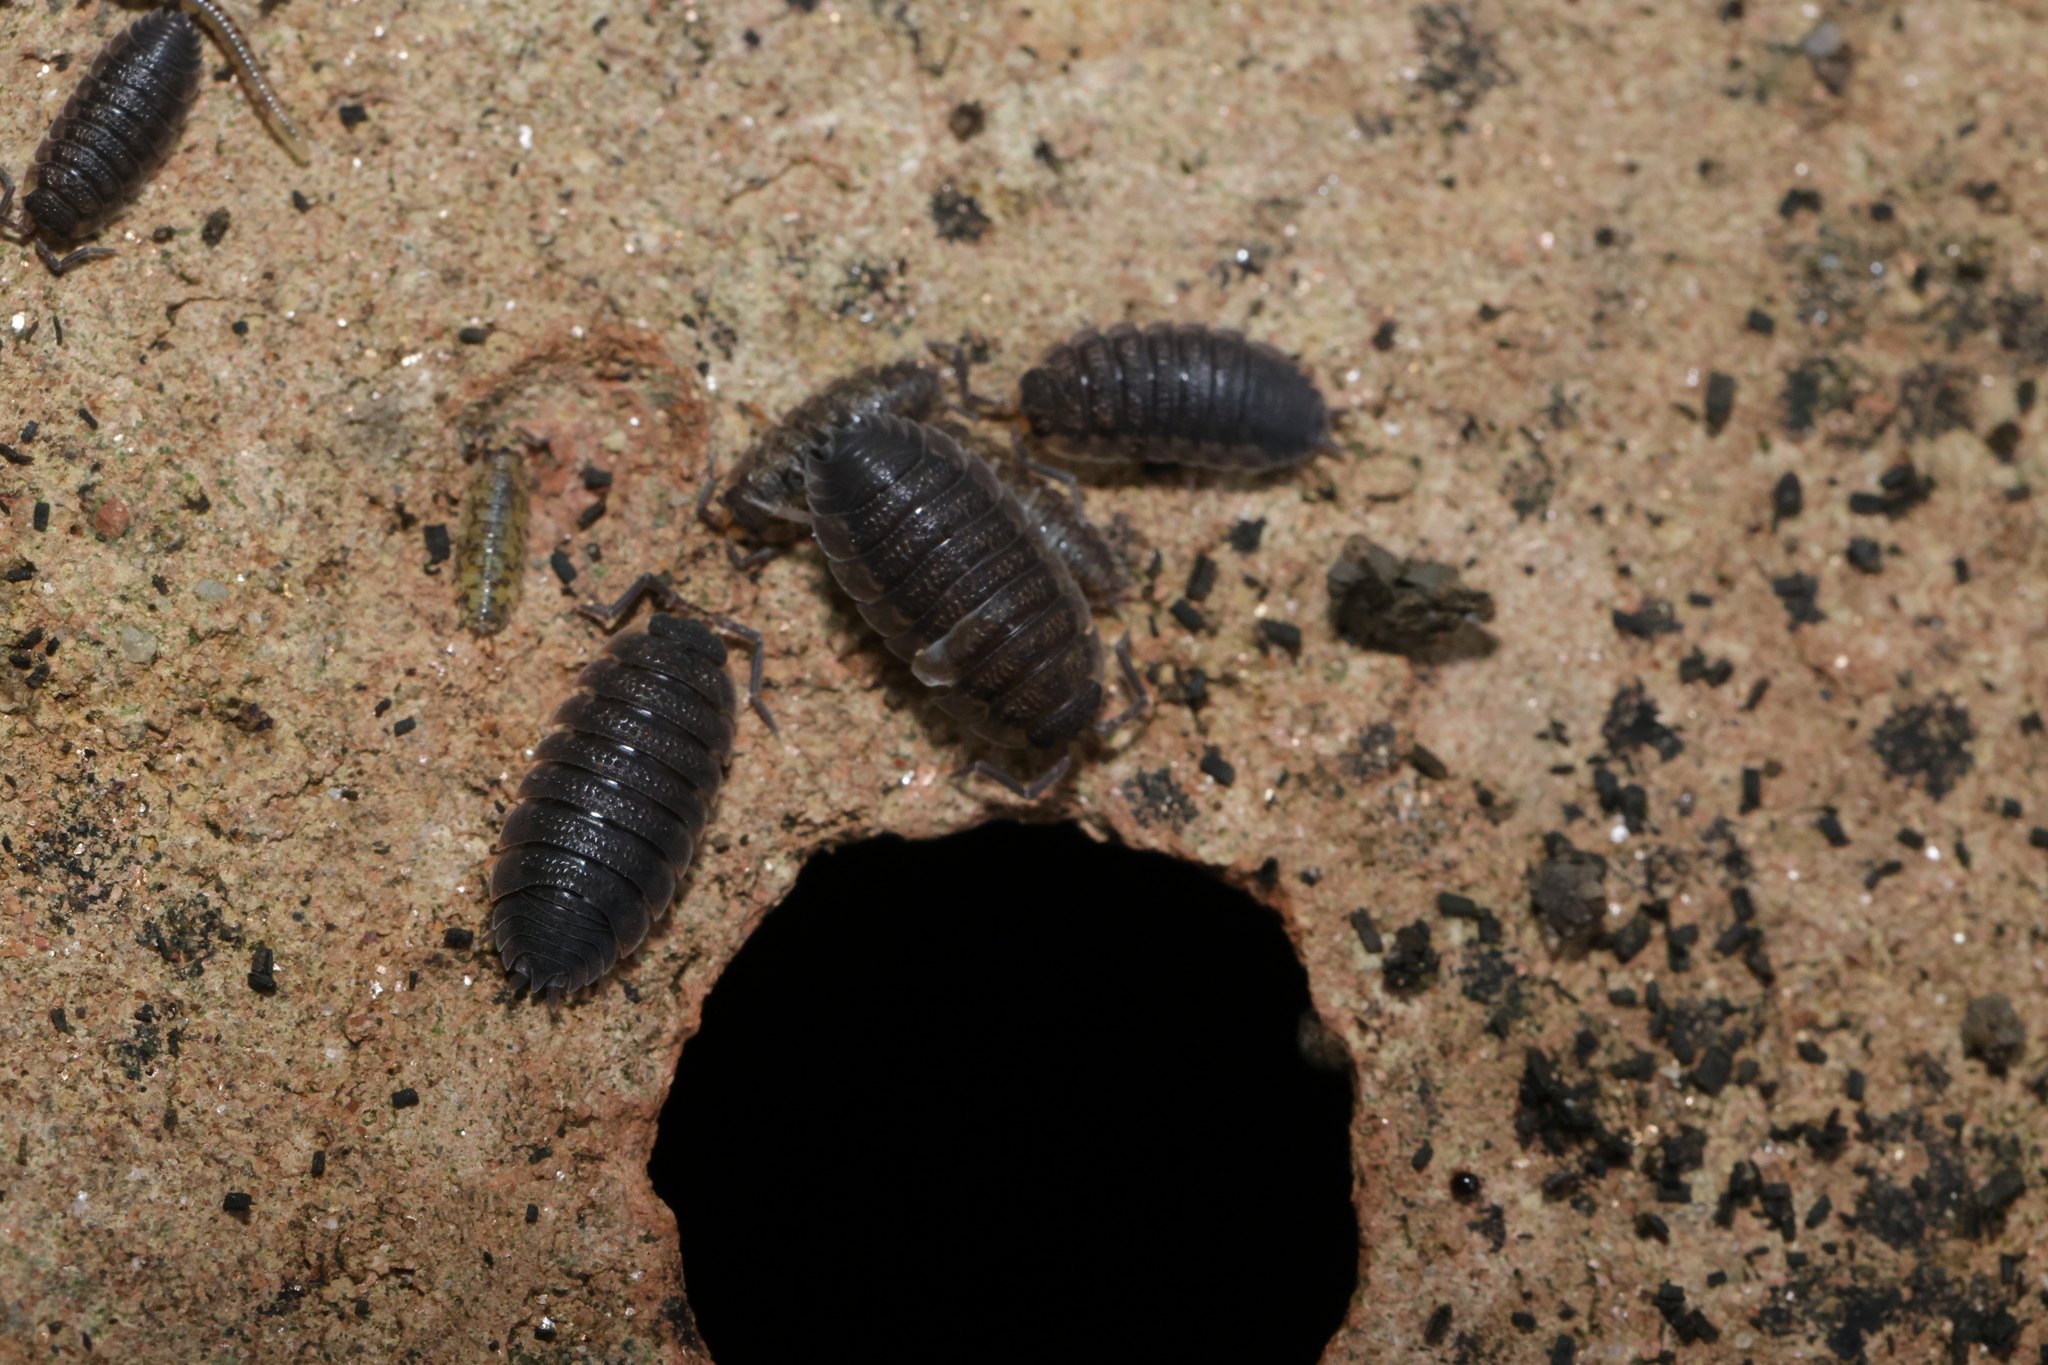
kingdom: Animalia
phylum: Arthropoda
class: Malacostraca
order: Isopoda
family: Porcellionidae
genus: Porcellio
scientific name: Porcellio scaber
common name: Common rough woodlouse
